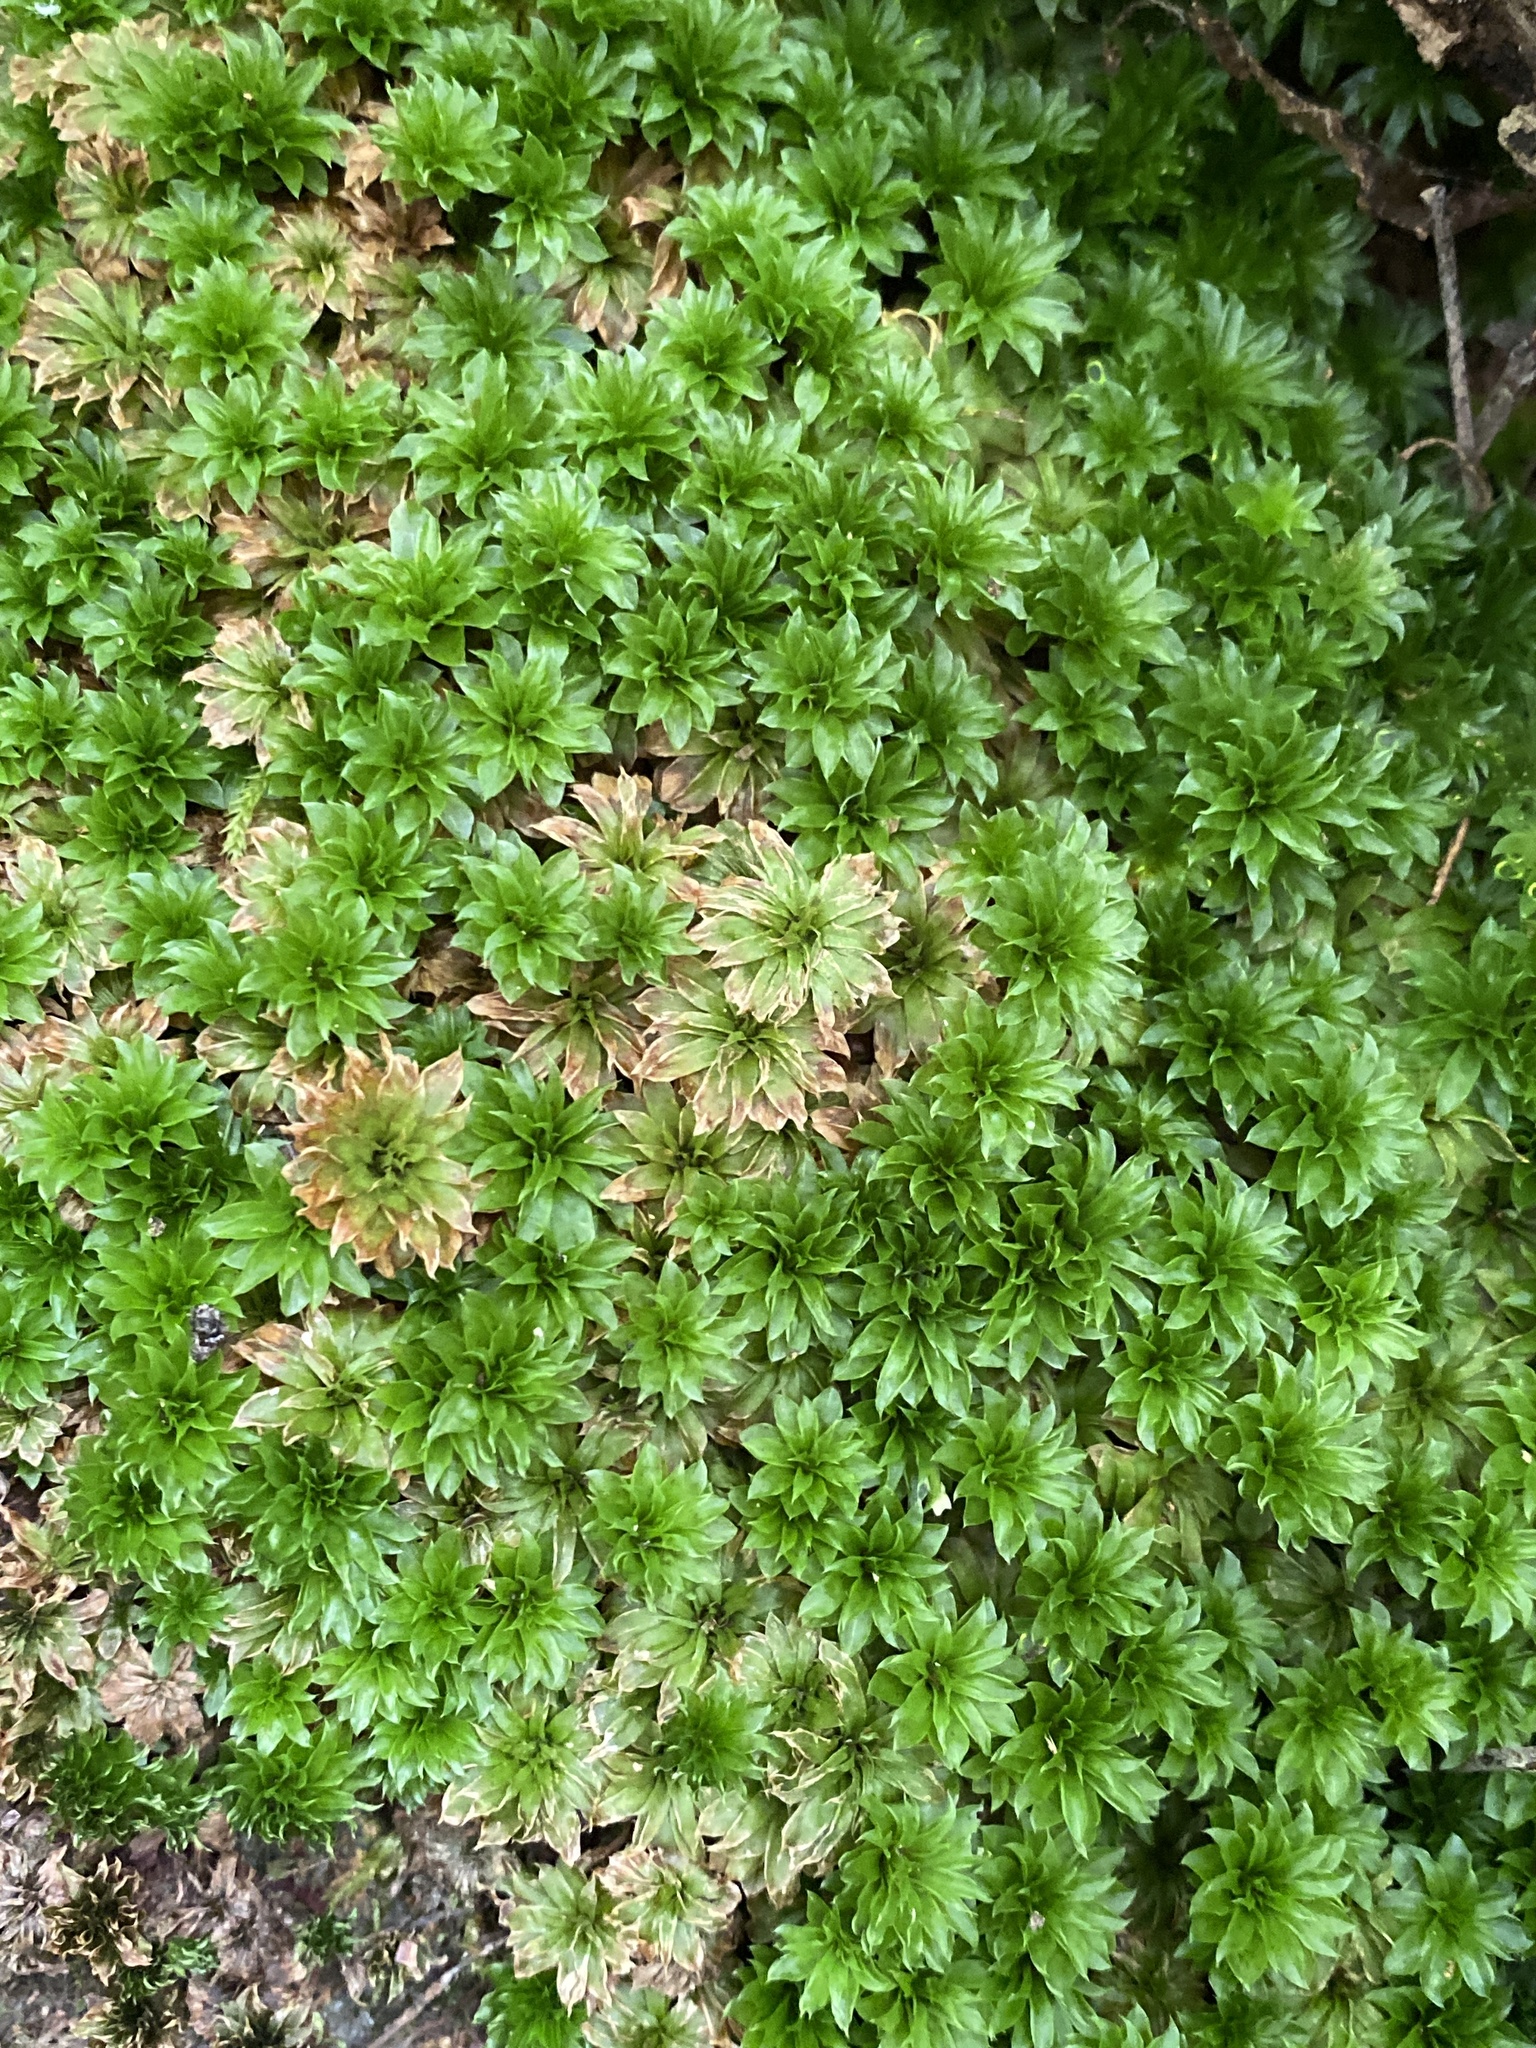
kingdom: Plantae
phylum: Bryophyta
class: Bryopsida
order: Bryales
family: Bryaceae
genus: Rhodobryum
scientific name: Rhodobryum ontariense
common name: Ontario rhodobryum moss
